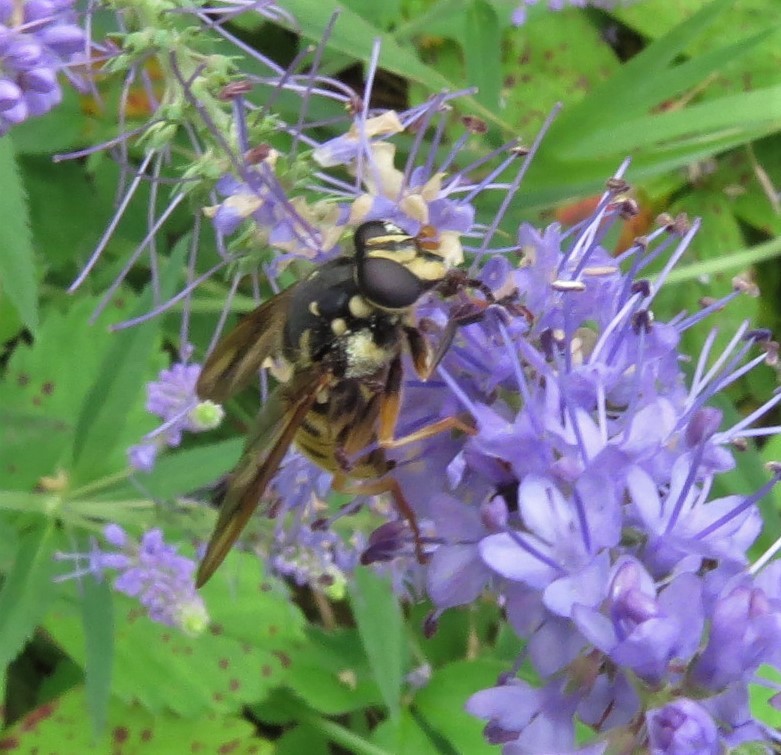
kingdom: Animalia
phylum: Arthropoda
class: Insecta
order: Diptera
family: Syrphidae
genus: Temnostoma
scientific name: Temnostoma alternans
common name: Wasp-like falsehorn
